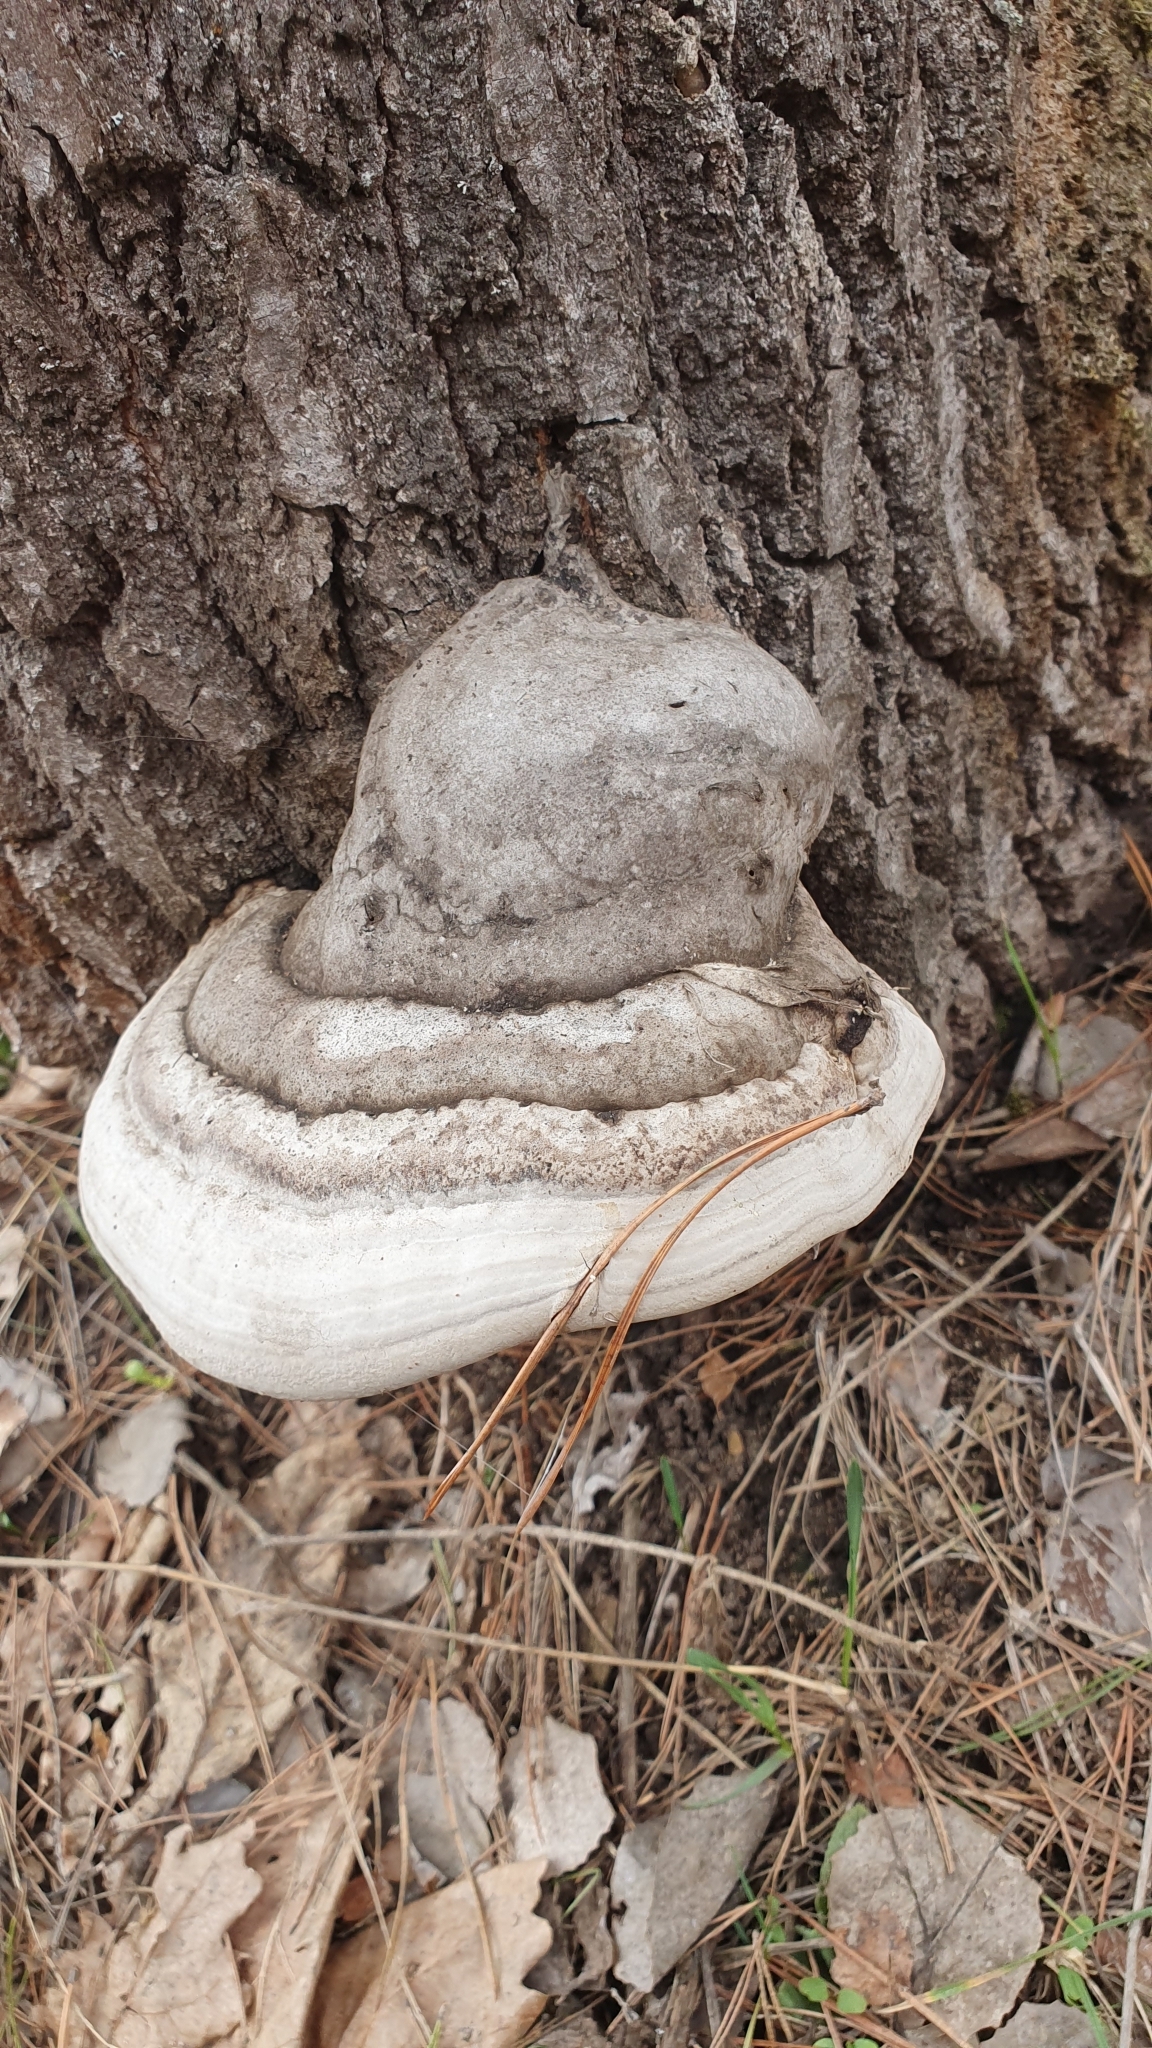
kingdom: Fungi
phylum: Basidiomycota
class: Agaricomycetes
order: Polyporales
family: Polyporaceae
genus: Fomes
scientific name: Fomes fomentarius
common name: Hoof fungus
